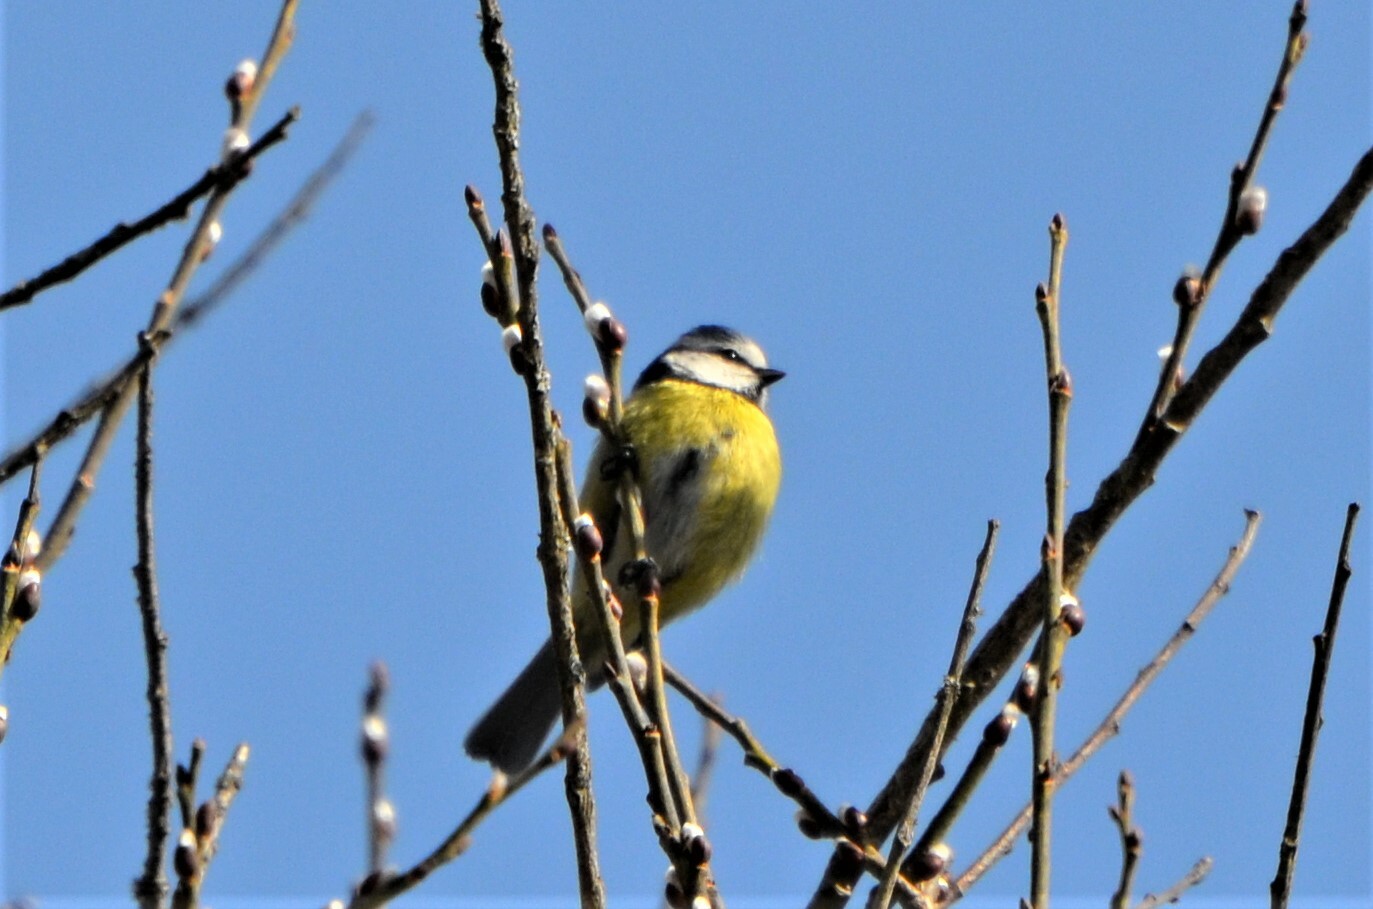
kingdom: Animalia
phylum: Chordata
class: Aves
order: Passeriformes
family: Paridae
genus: Cyanistes
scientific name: Cyanistes caeruleus
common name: Eurasian blue tit
